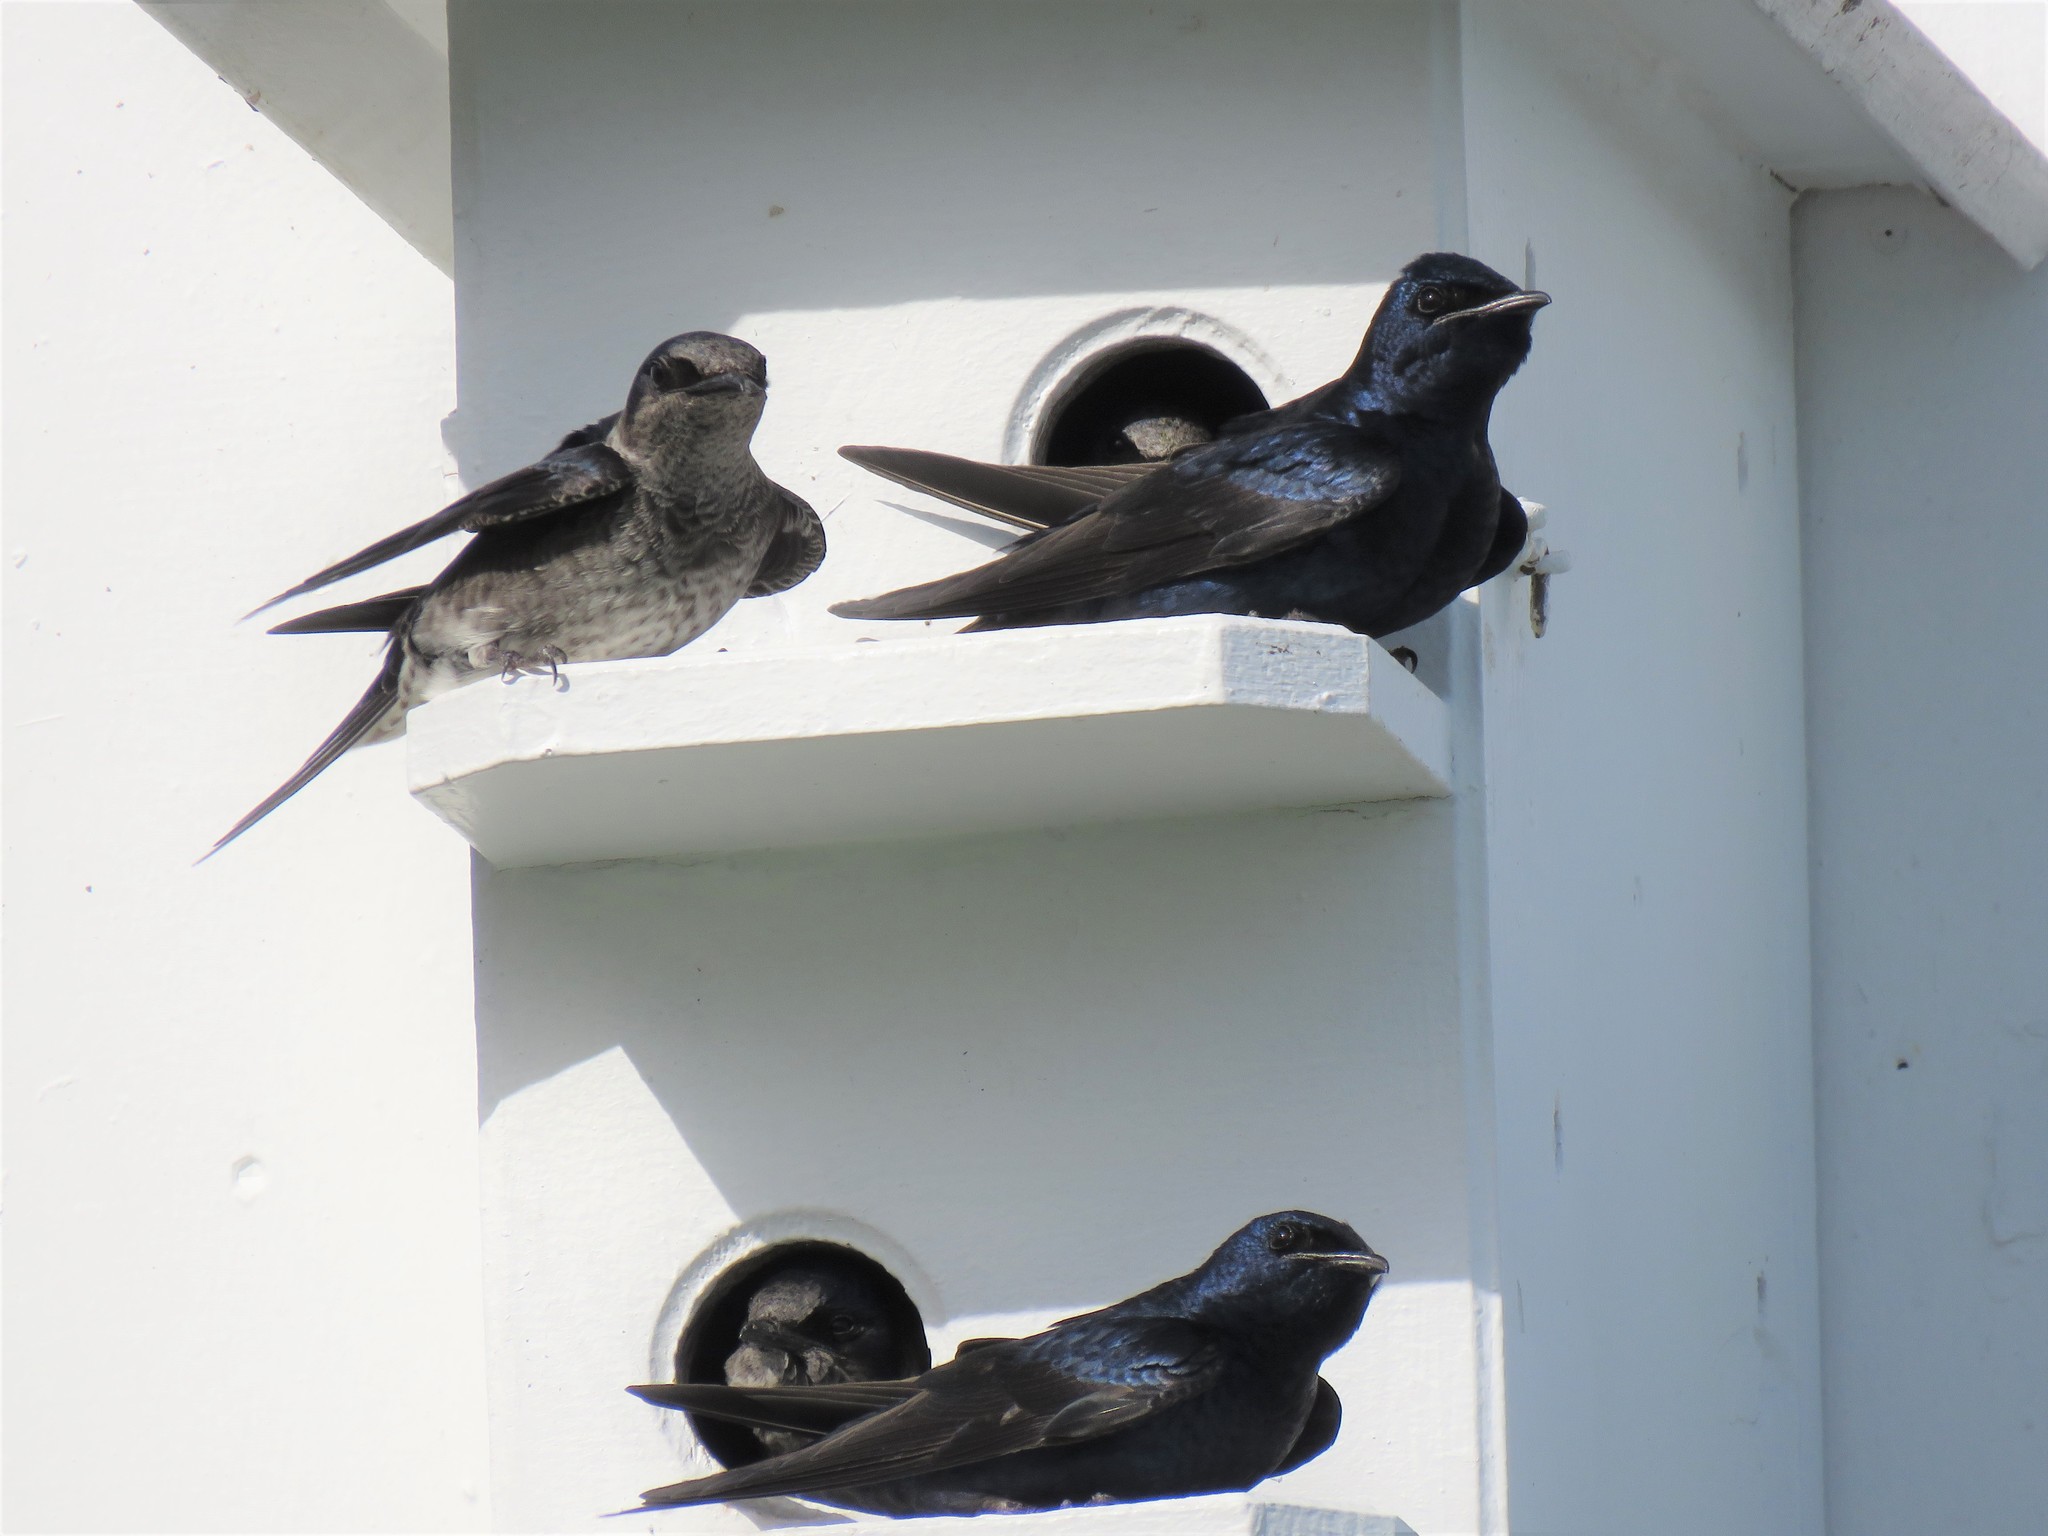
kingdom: Animalia
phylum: Chordata
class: Aves
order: Passeriformes
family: Hirundinidae
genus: Progne
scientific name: Progne subis
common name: Purple martin
